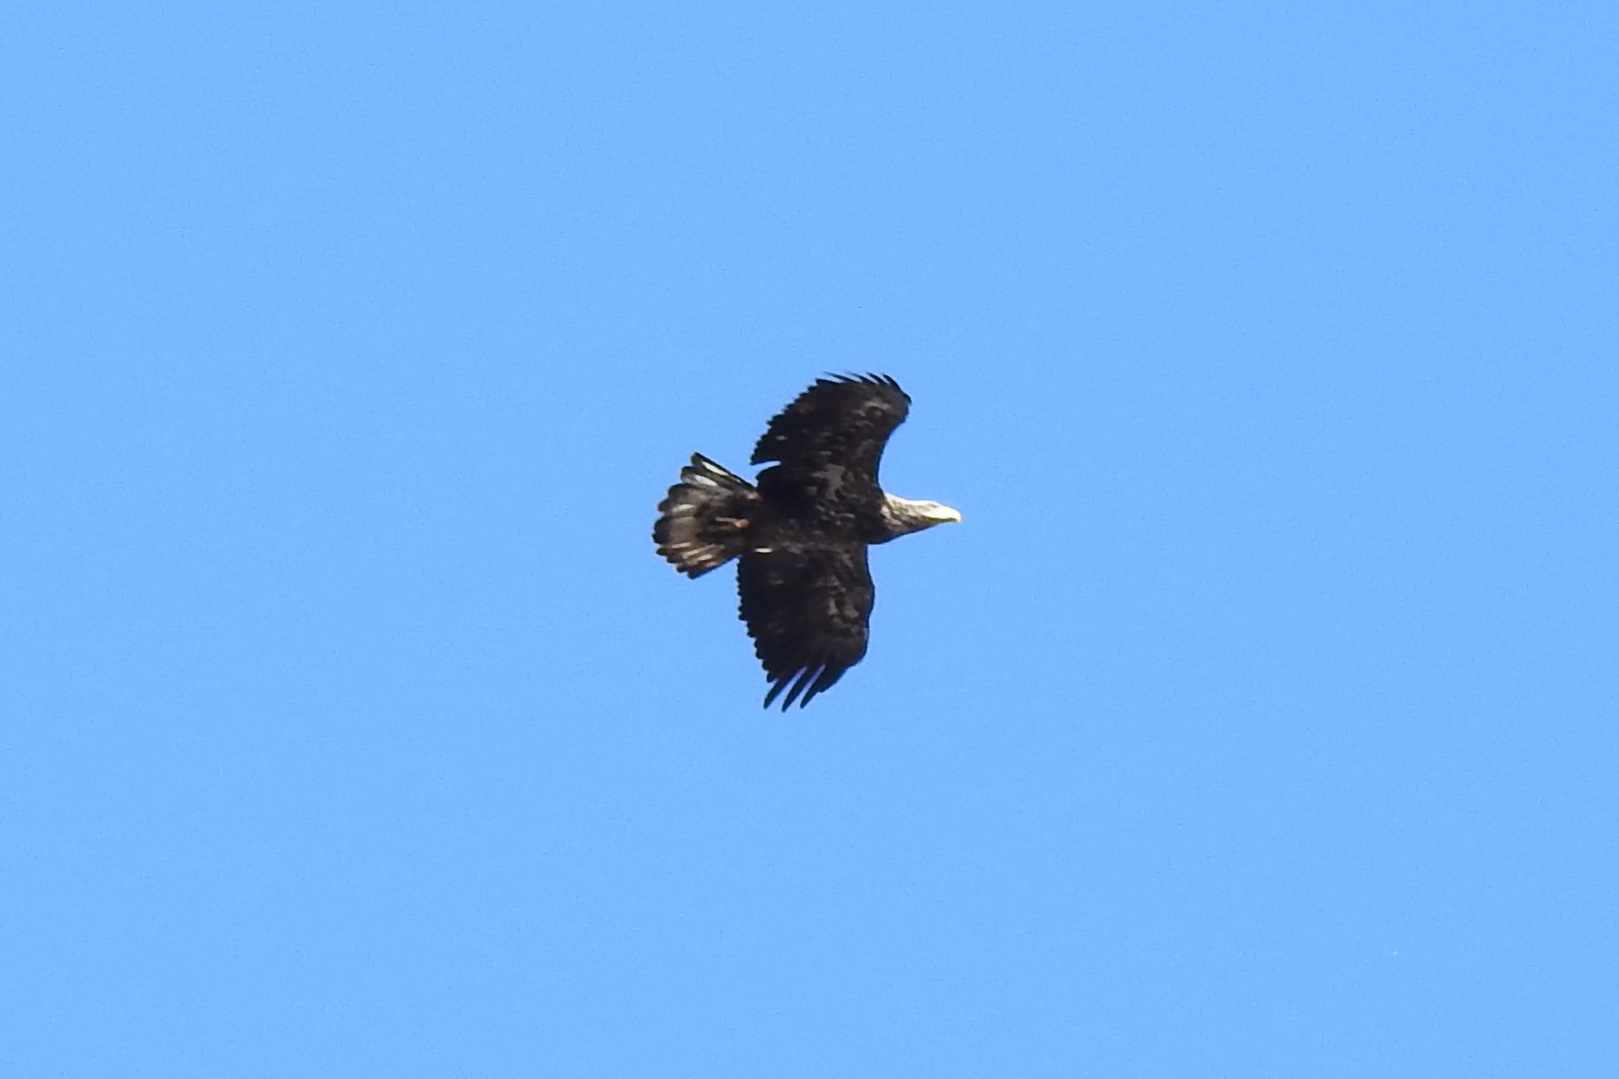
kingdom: Animalia
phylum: Chordata
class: Aves
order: Accipitriformes
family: Accipitridae
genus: Haliaeetus
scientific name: Haliaeetus leucocephalus
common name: Bald eagle
